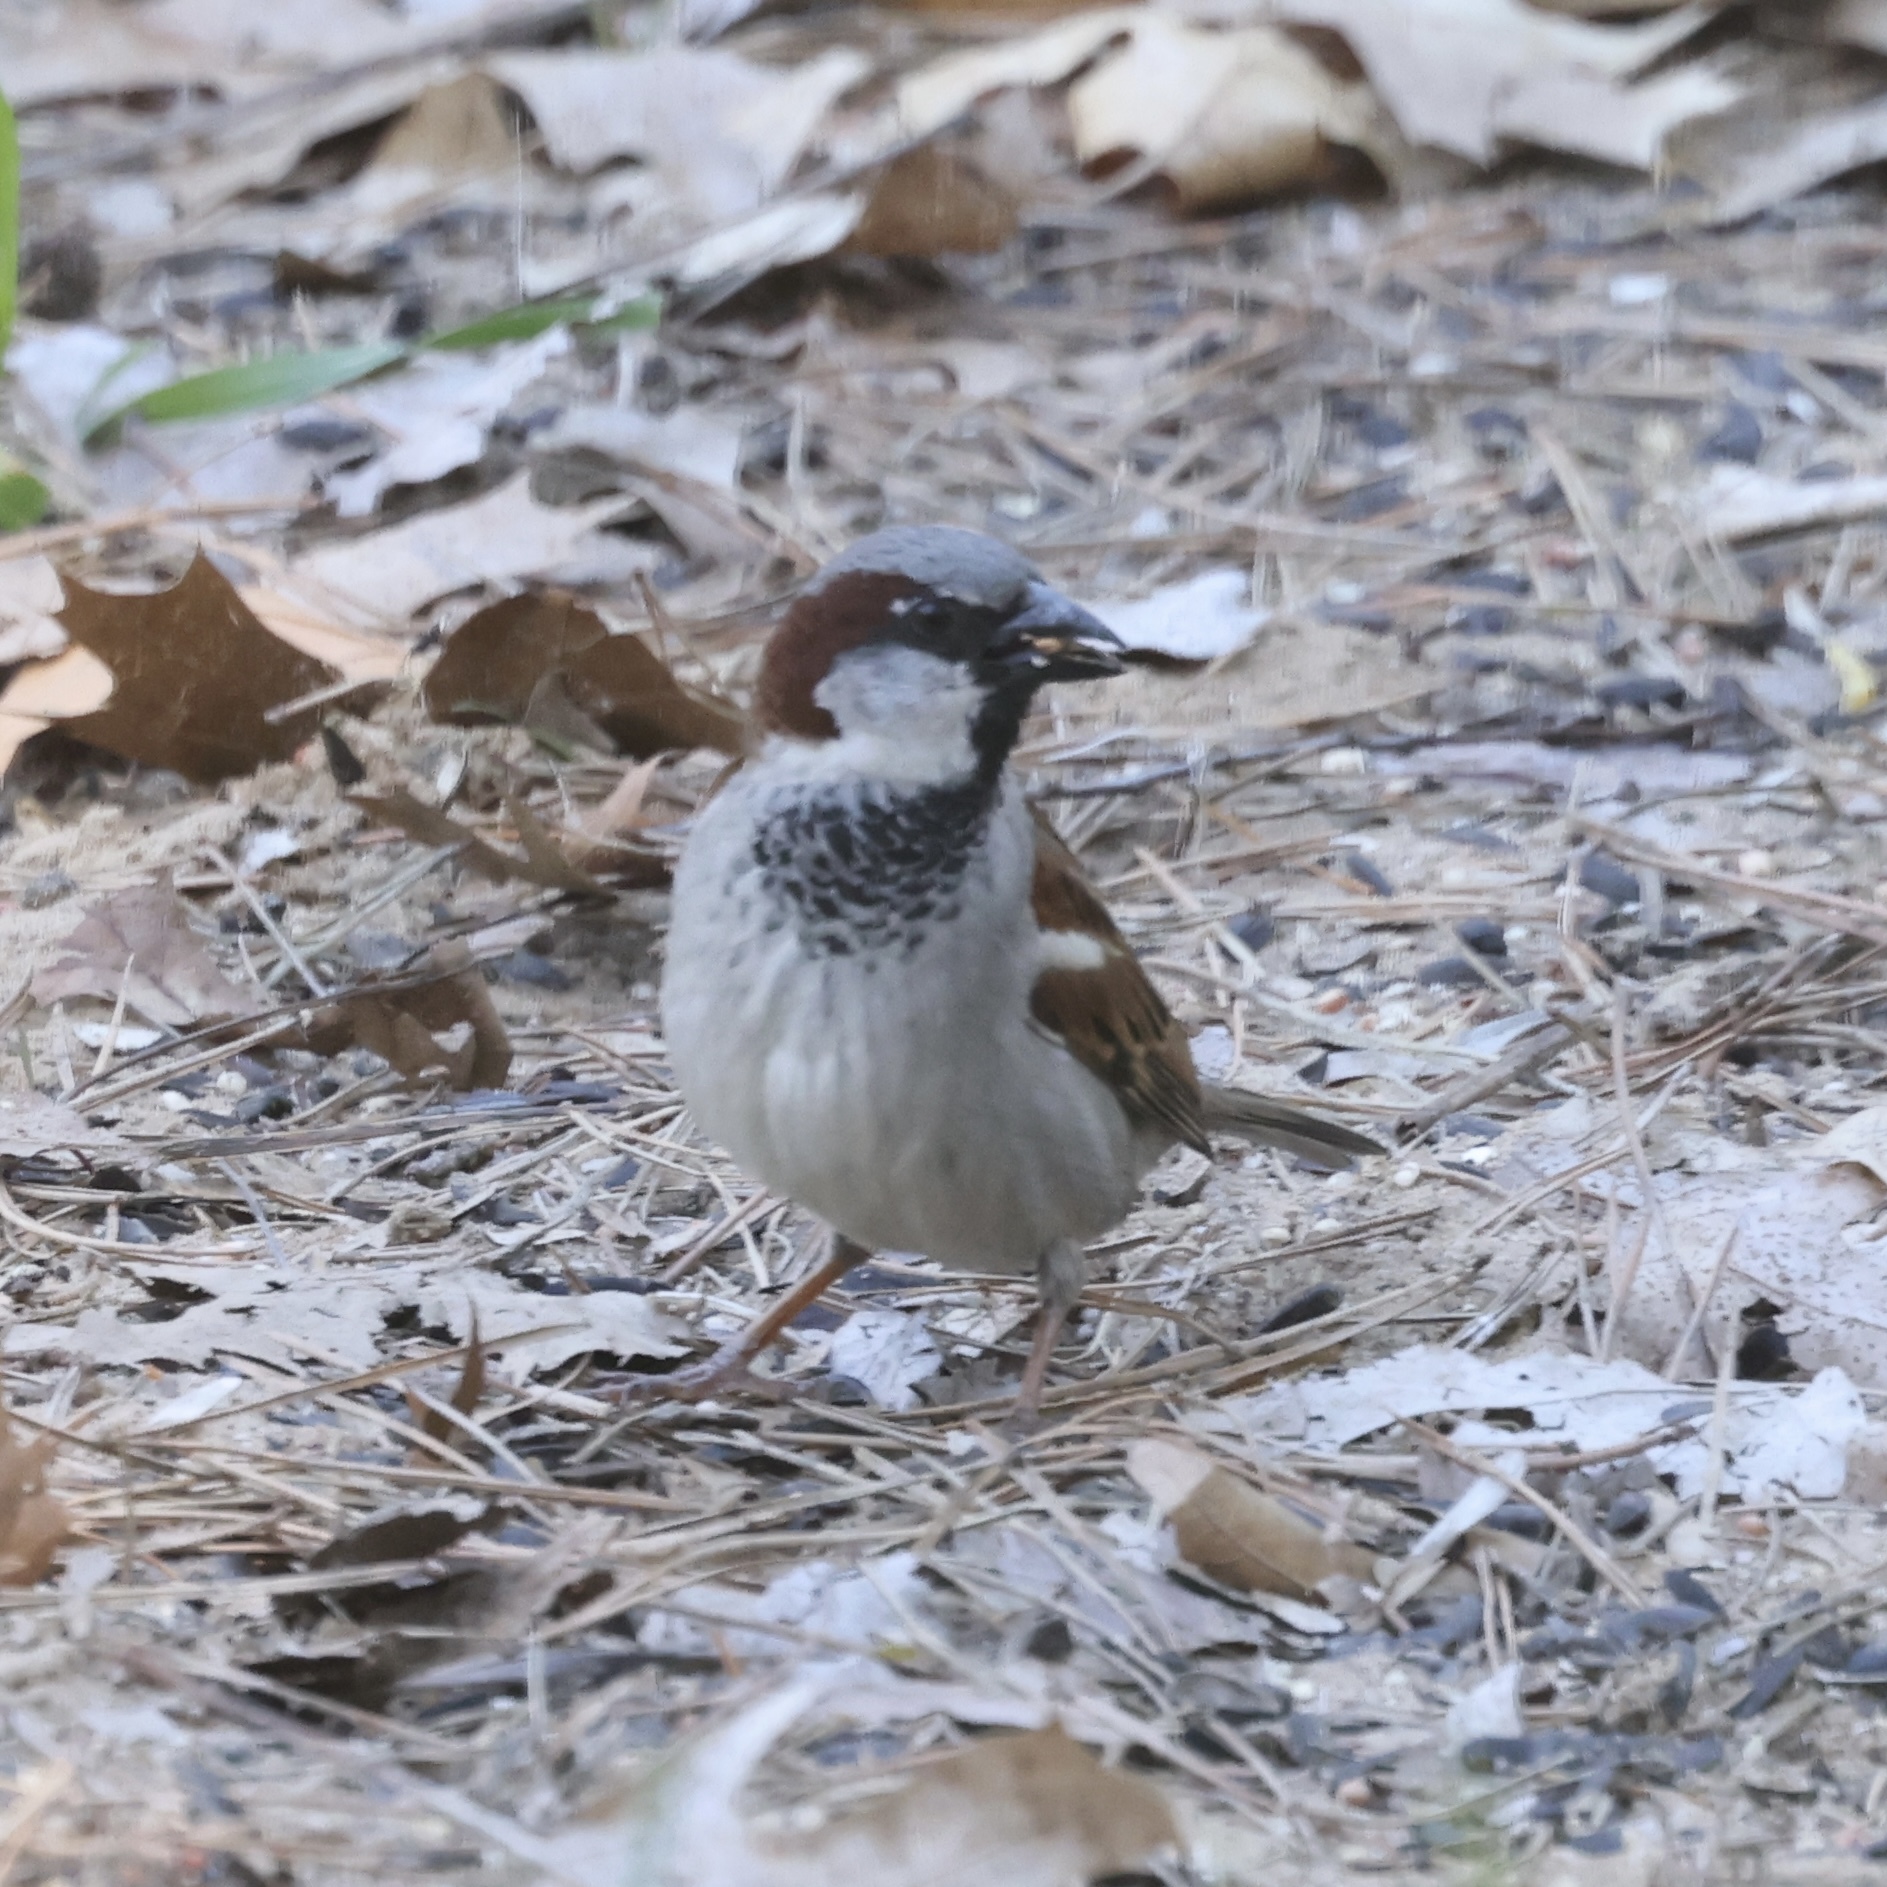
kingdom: Animalia
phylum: Chordata
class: Aves
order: Passeriformes
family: Passeridae
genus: Passer
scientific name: Passer domesticus
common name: House sparrow
